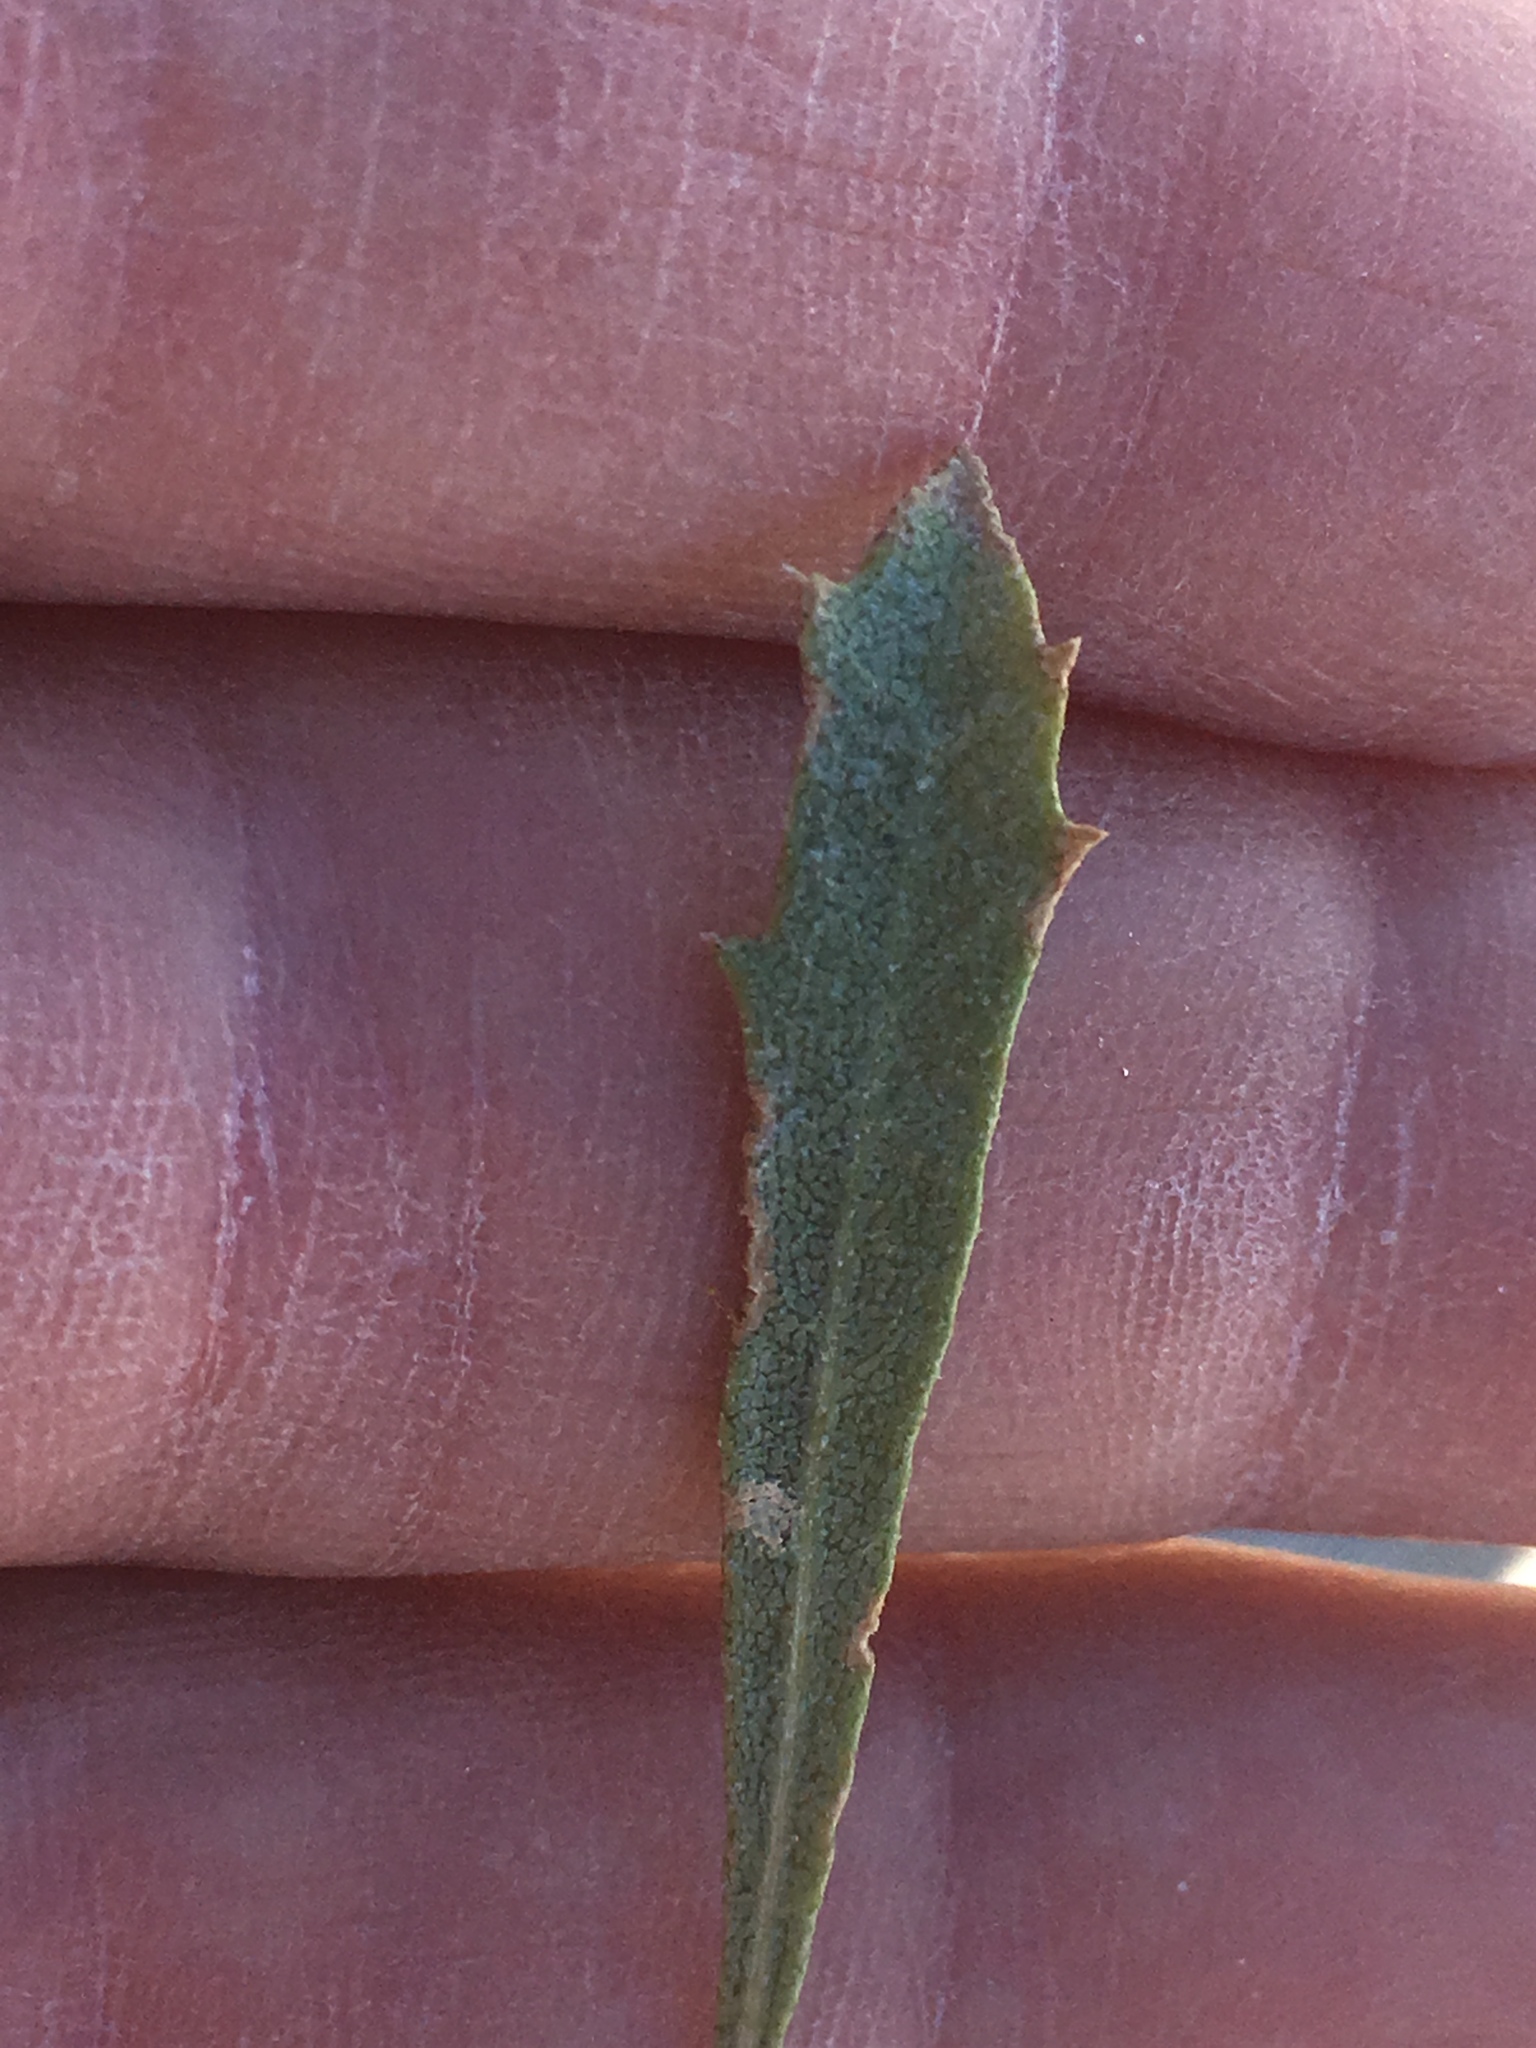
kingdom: Plantae
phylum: Tracheophyta
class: Magnoliopsida
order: Asterales
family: Asteraceae
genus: Isocoma
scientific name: Isocoma acradenia
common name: Alkali jimmyweed
